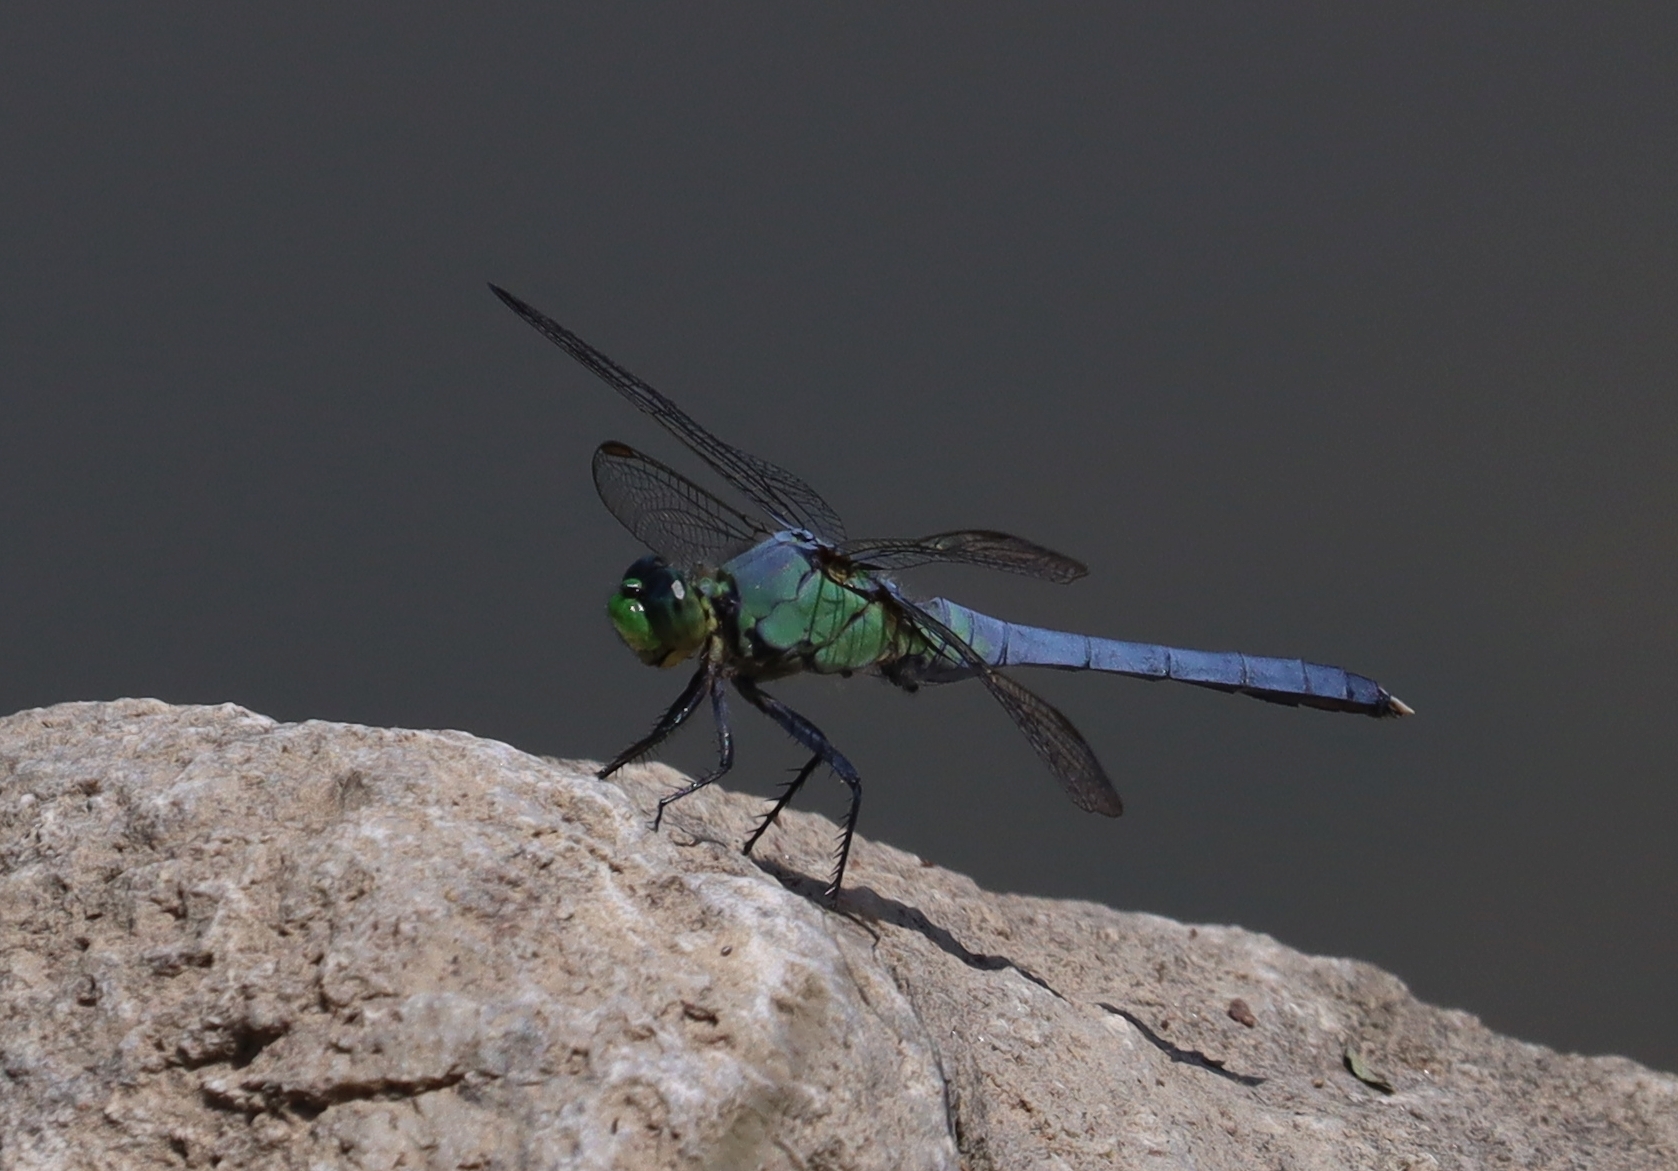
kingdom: Animalia
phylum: Arthropoda
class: Insecta
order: Odonata
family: Libellulidae
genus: Erythemis
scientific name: Erythemis simplicicollis
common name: Eastern pondhawk
